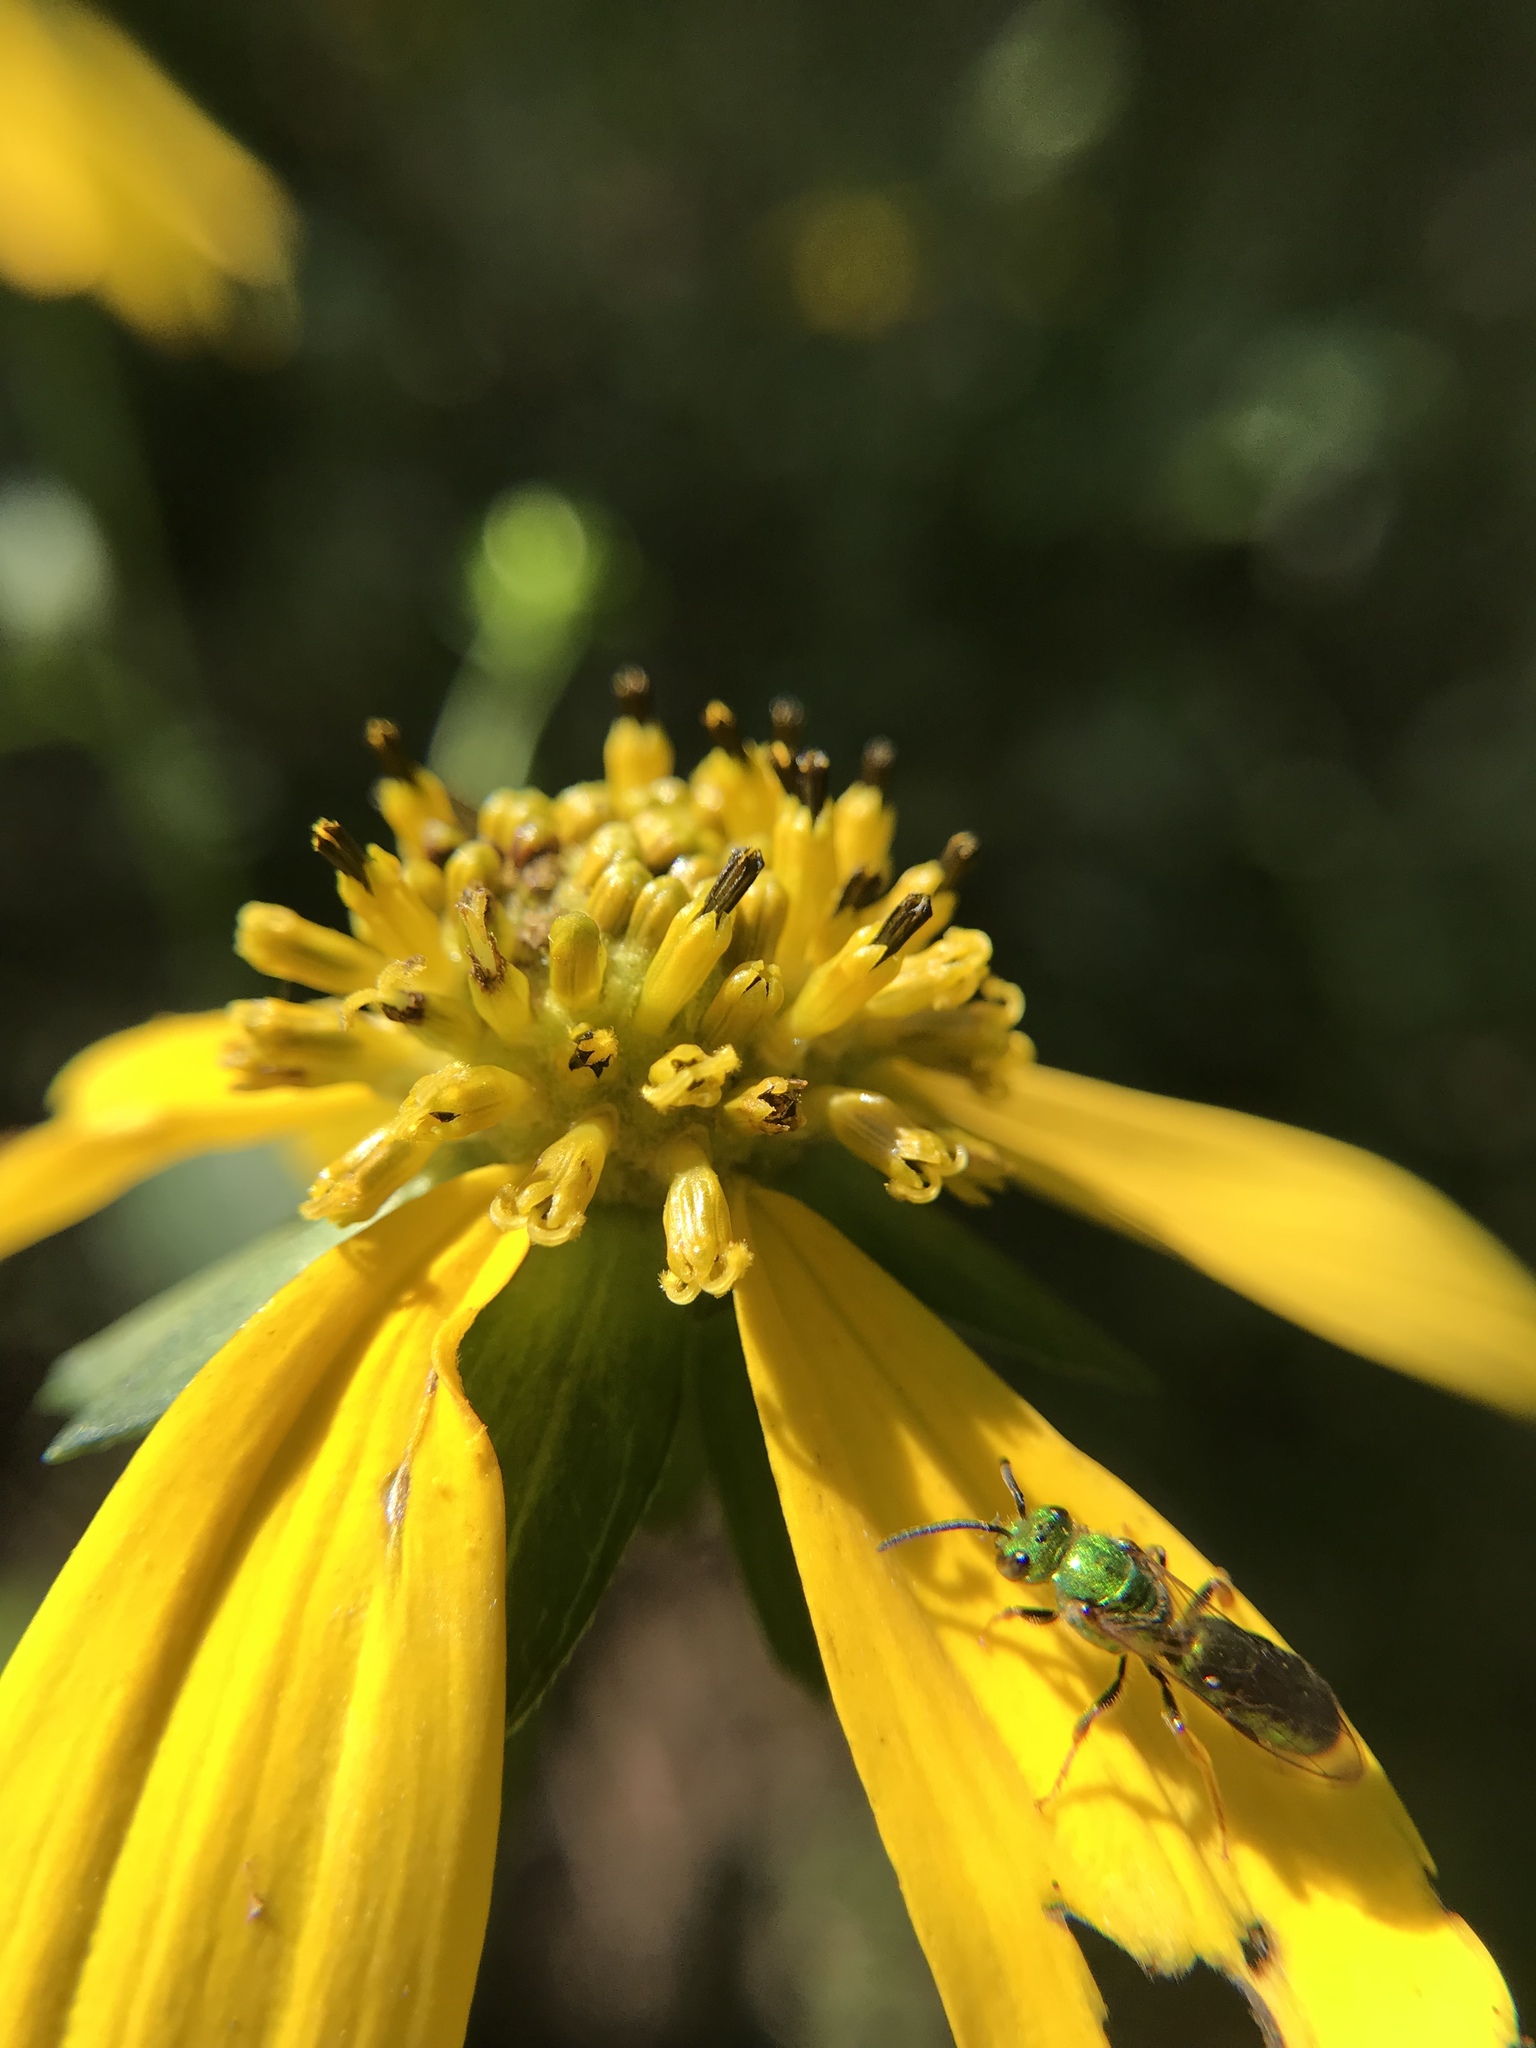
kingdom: Plantae
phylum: Tracheophyta
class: Magnoliopsida
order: Asterales
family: Asteraceae
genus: Rudbeckia
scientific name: Rudbeckia laciniata
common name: Coneflower
